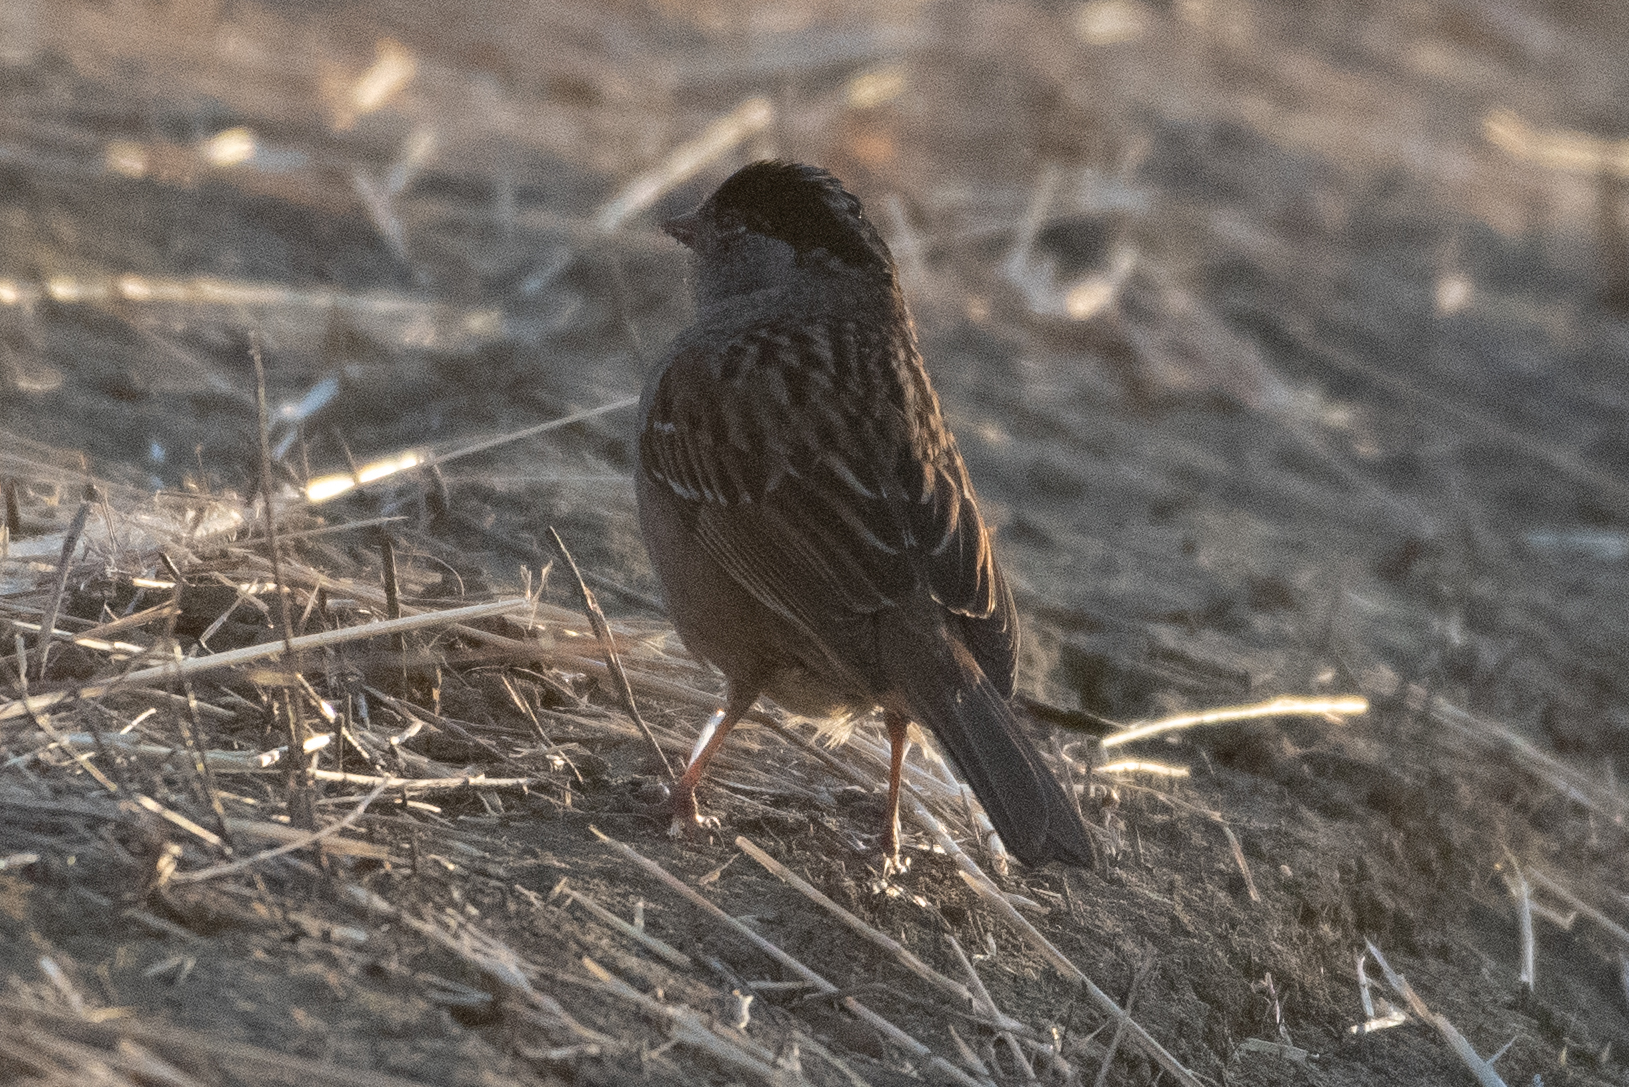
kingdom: Animalia
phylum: Chordata
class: Aves
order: Passeriformes
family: Passerellidae
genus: Zonotrichia
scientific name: Zonotrichia atricapilla
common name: Golden-crowned sparrow
